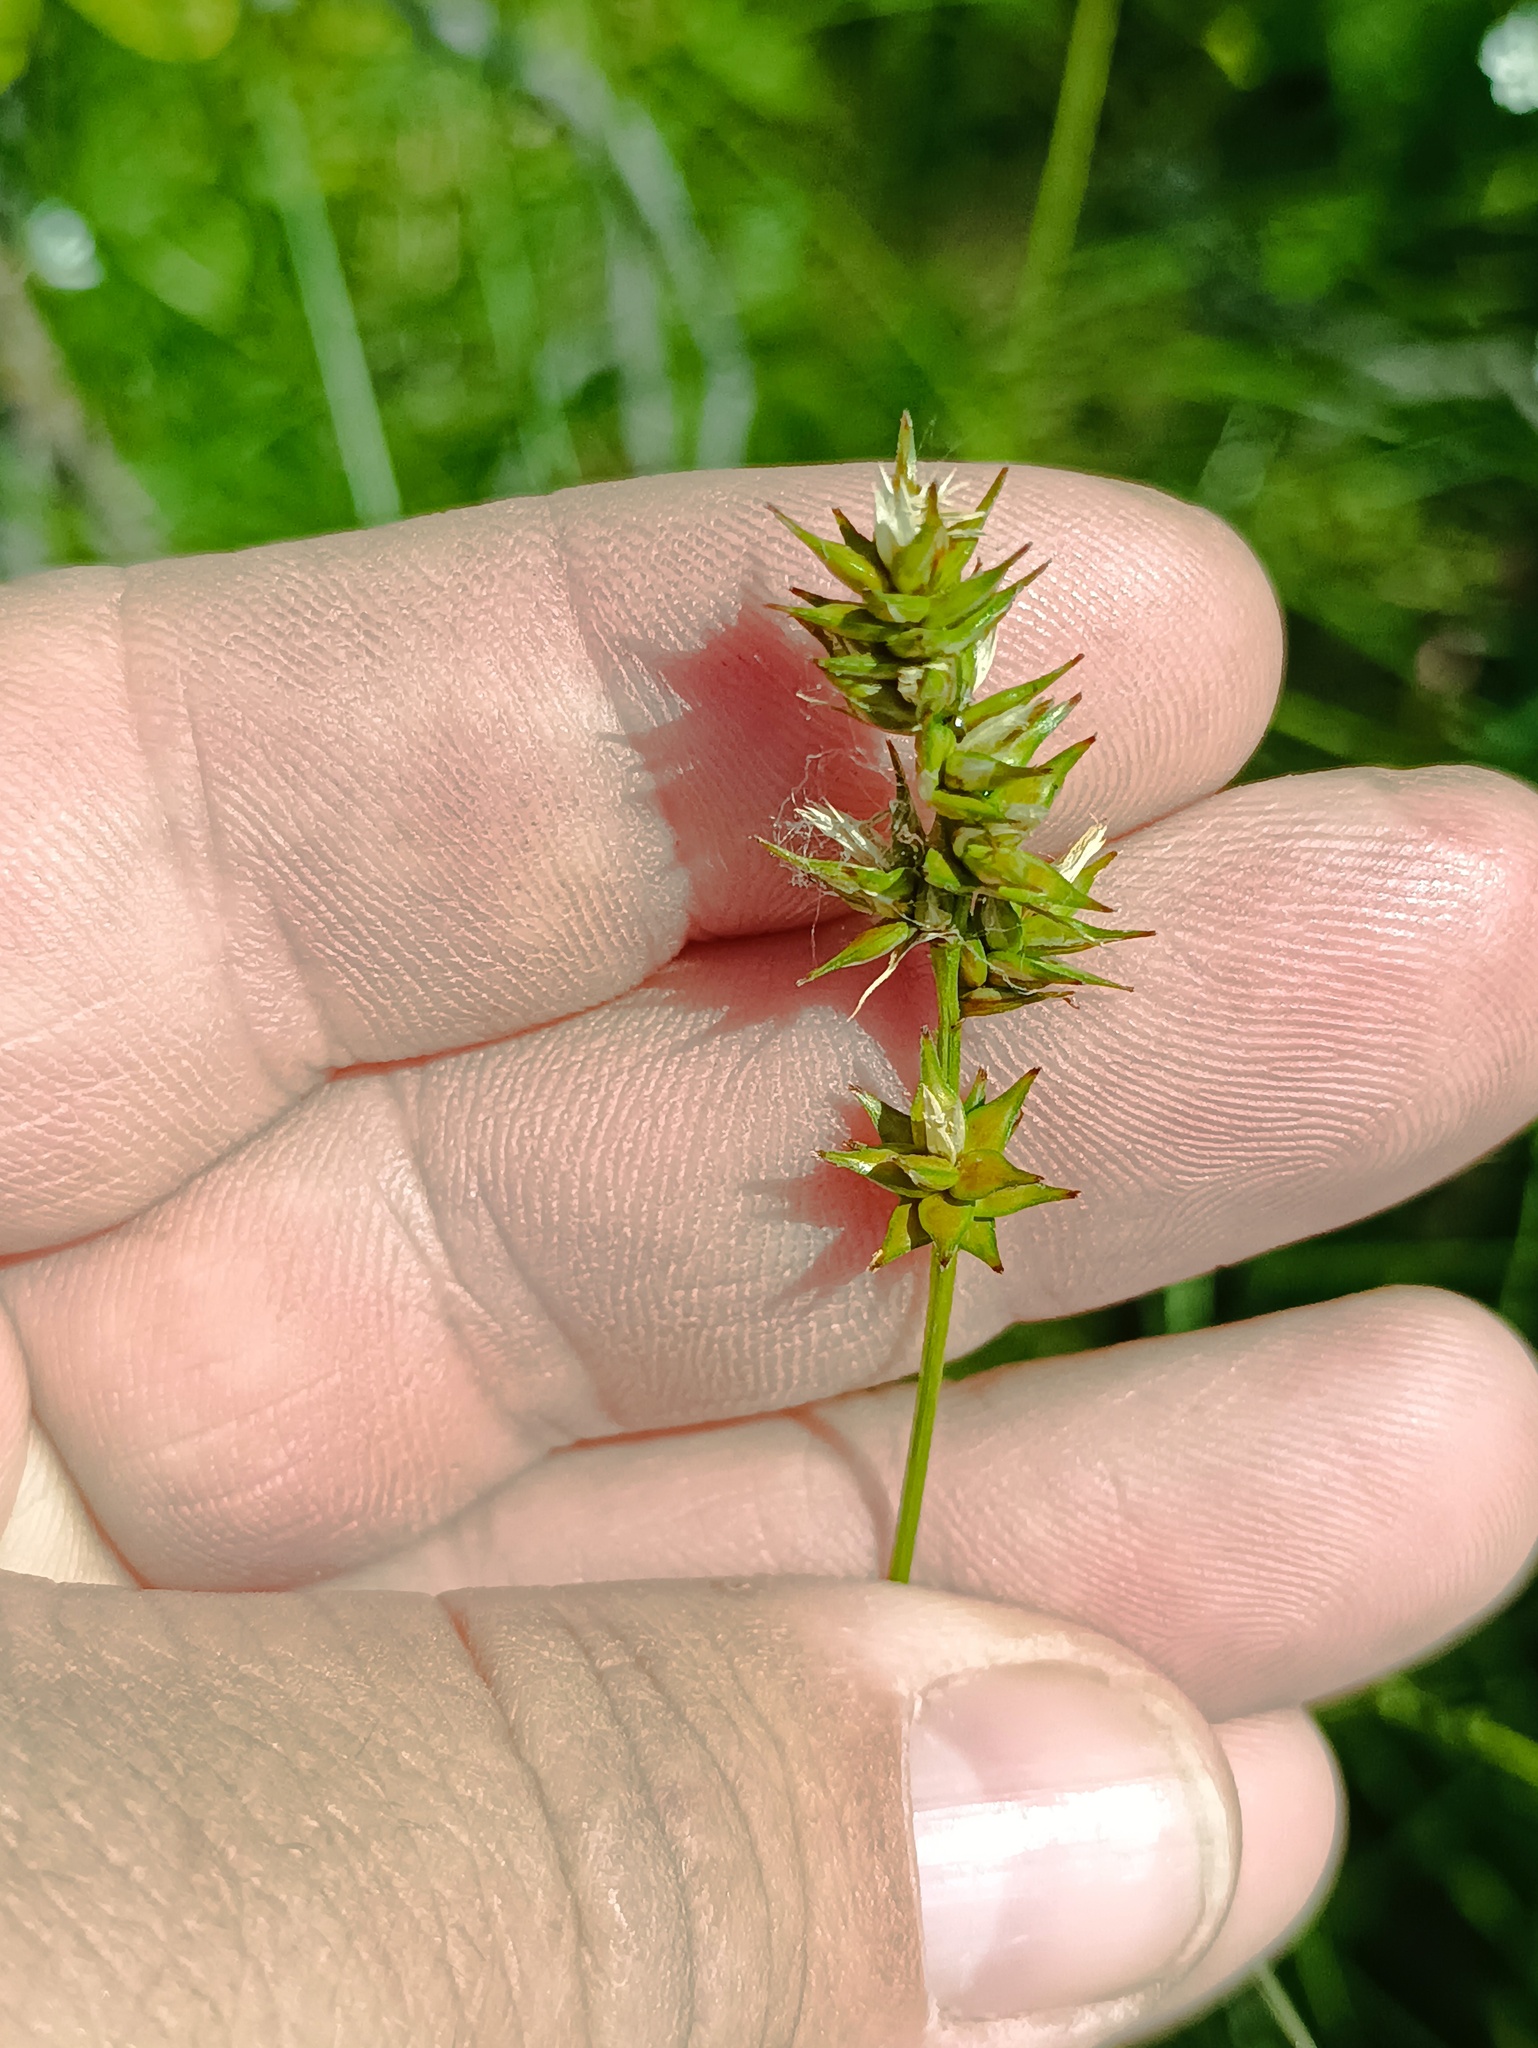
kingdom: Plantae
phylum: Tracheophyta
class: Liliopsida
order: Poales
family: Cyperaceae
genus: Carex
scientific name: Carex spicata
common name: Spiked sedge
